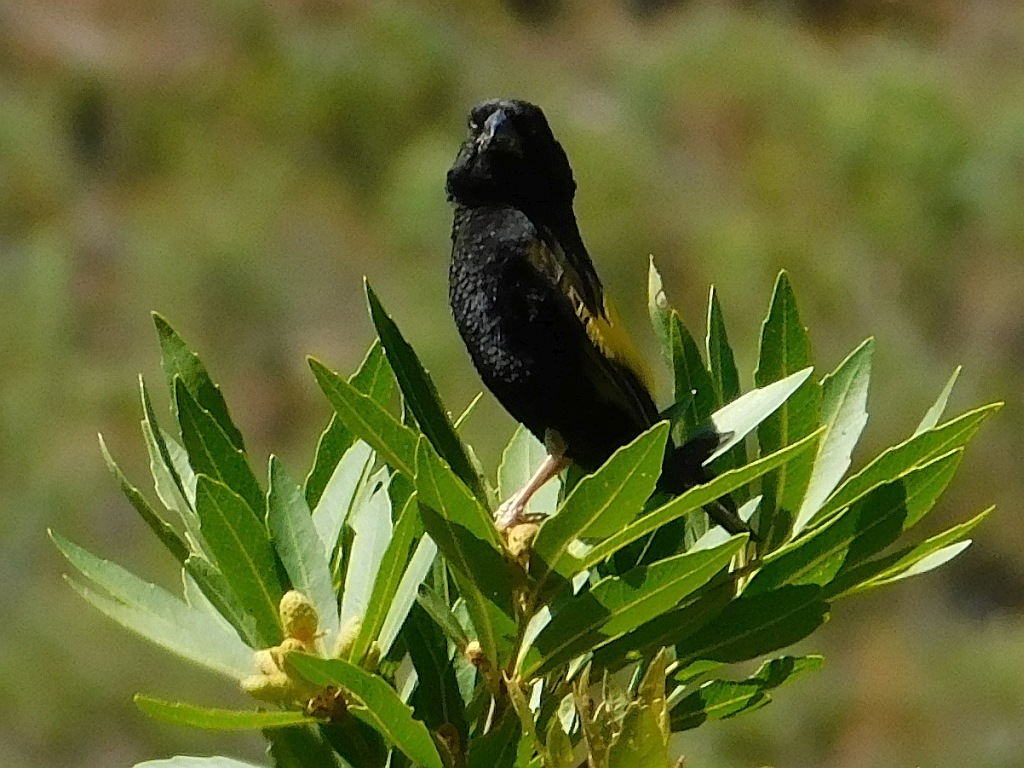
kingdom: Animalia
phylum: Chordata
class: Aves
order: Passeriformes
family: Ploceidae
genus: Euplectes
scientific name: Euplectes capensis
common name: Yellow bishop
